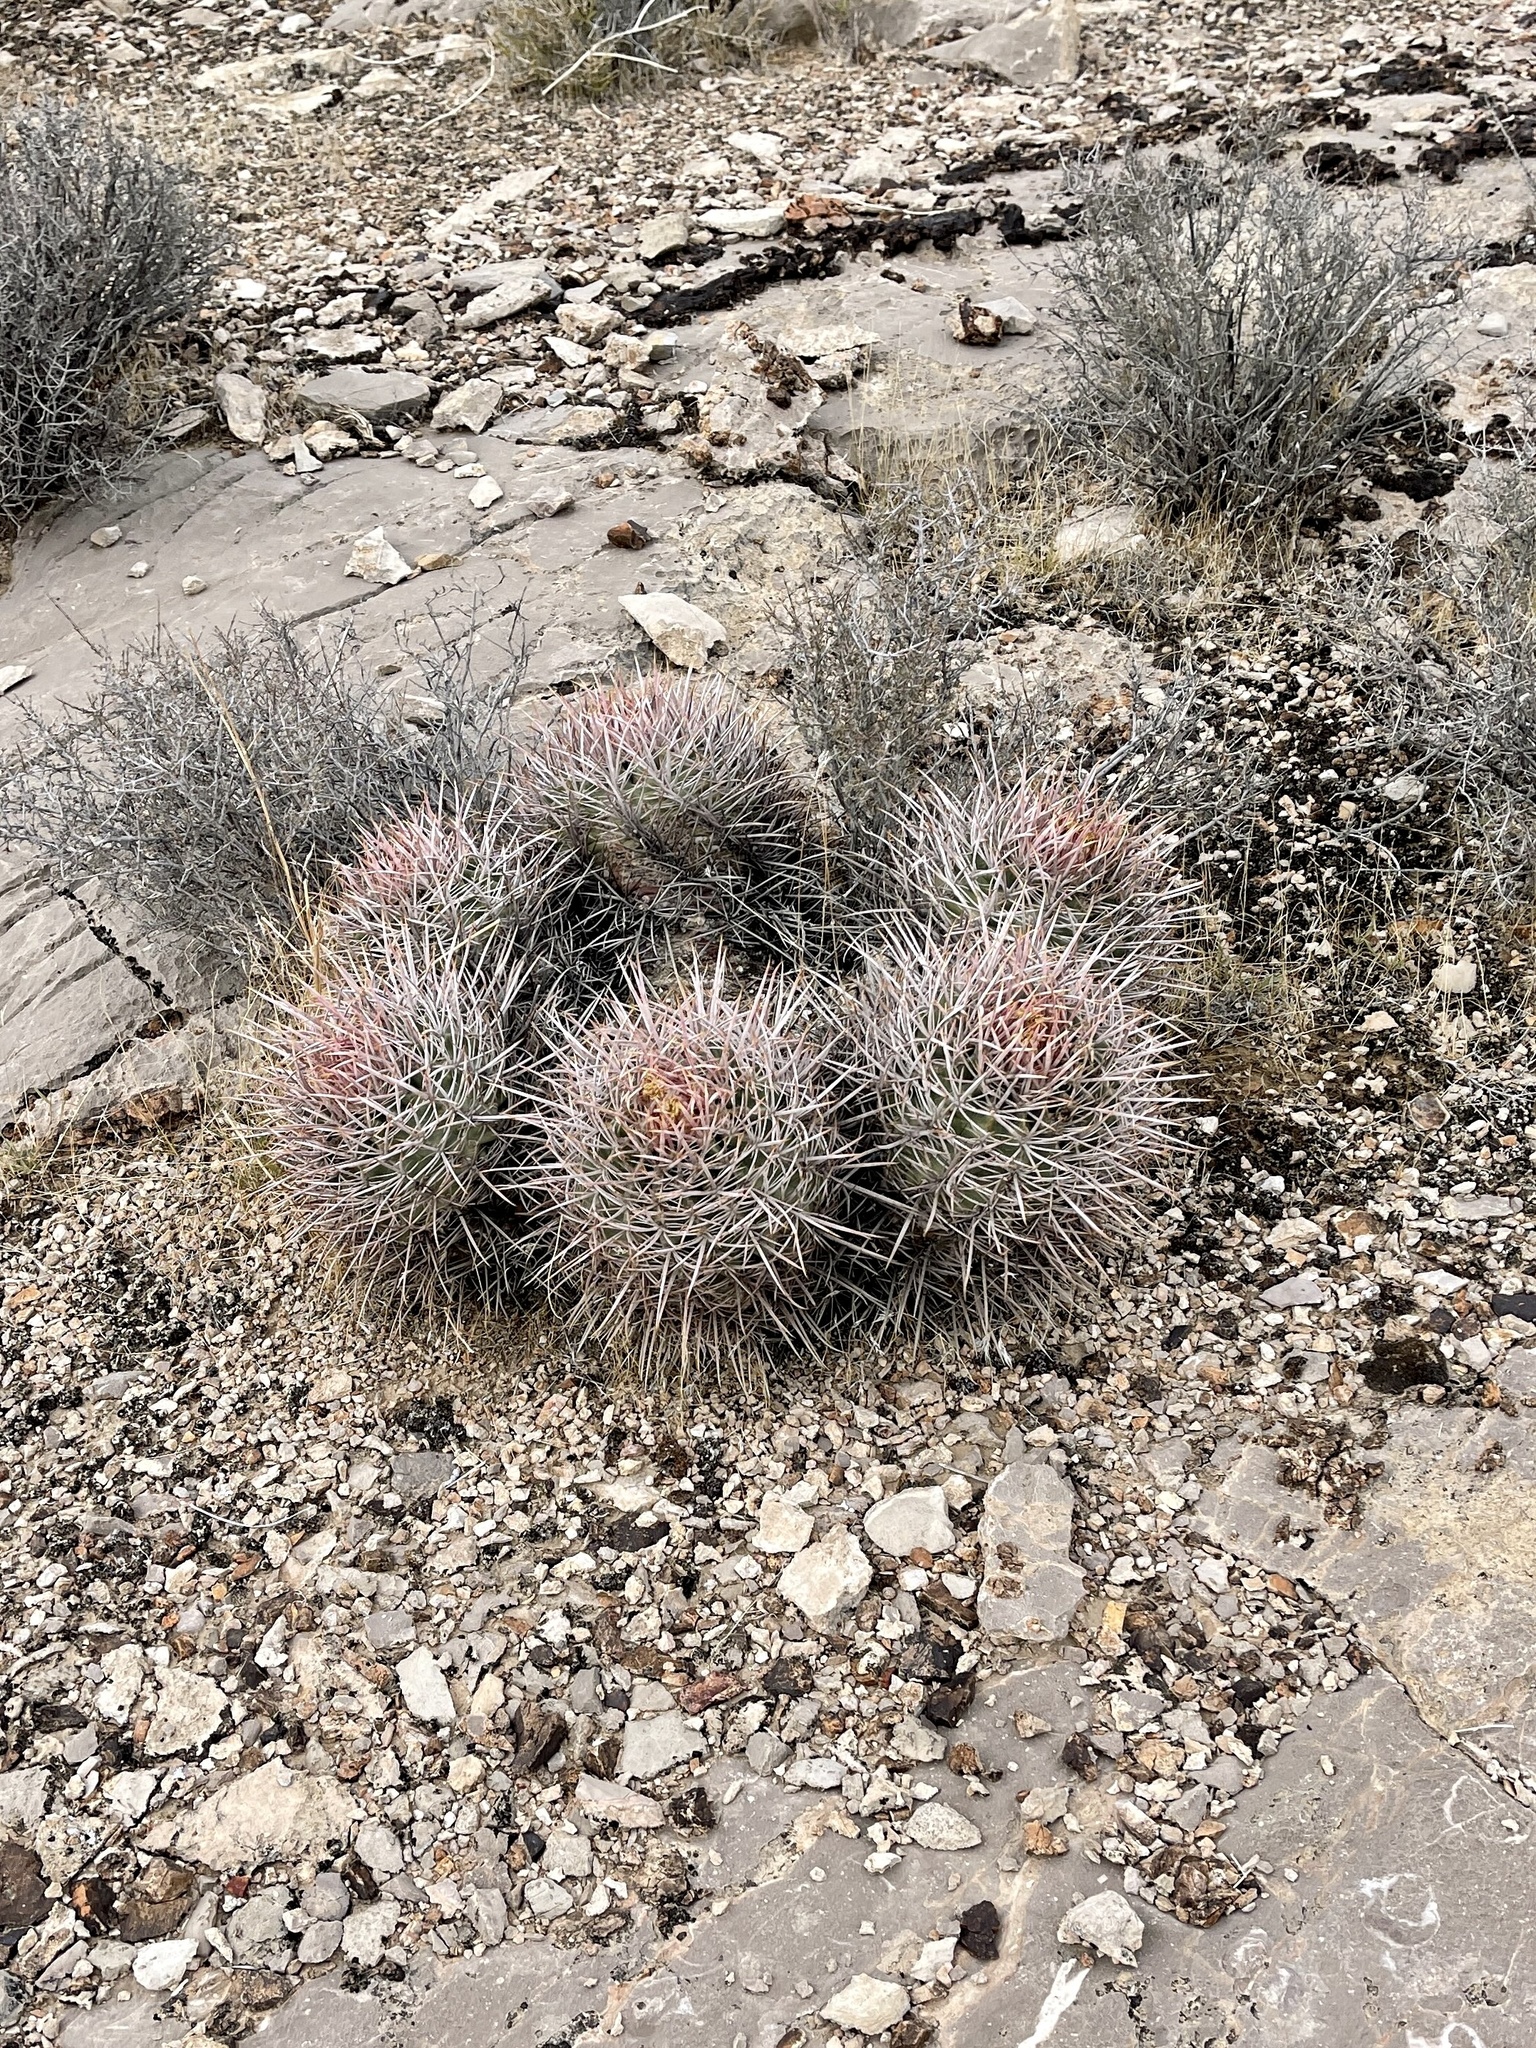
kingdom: Plantae
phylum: Tracheophyta
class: Magnoliopsida
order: Caryophyllales
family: Cactaceae
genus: Echinocactus
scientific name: Echinocactus polycephalus
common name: Cottontop cactus
